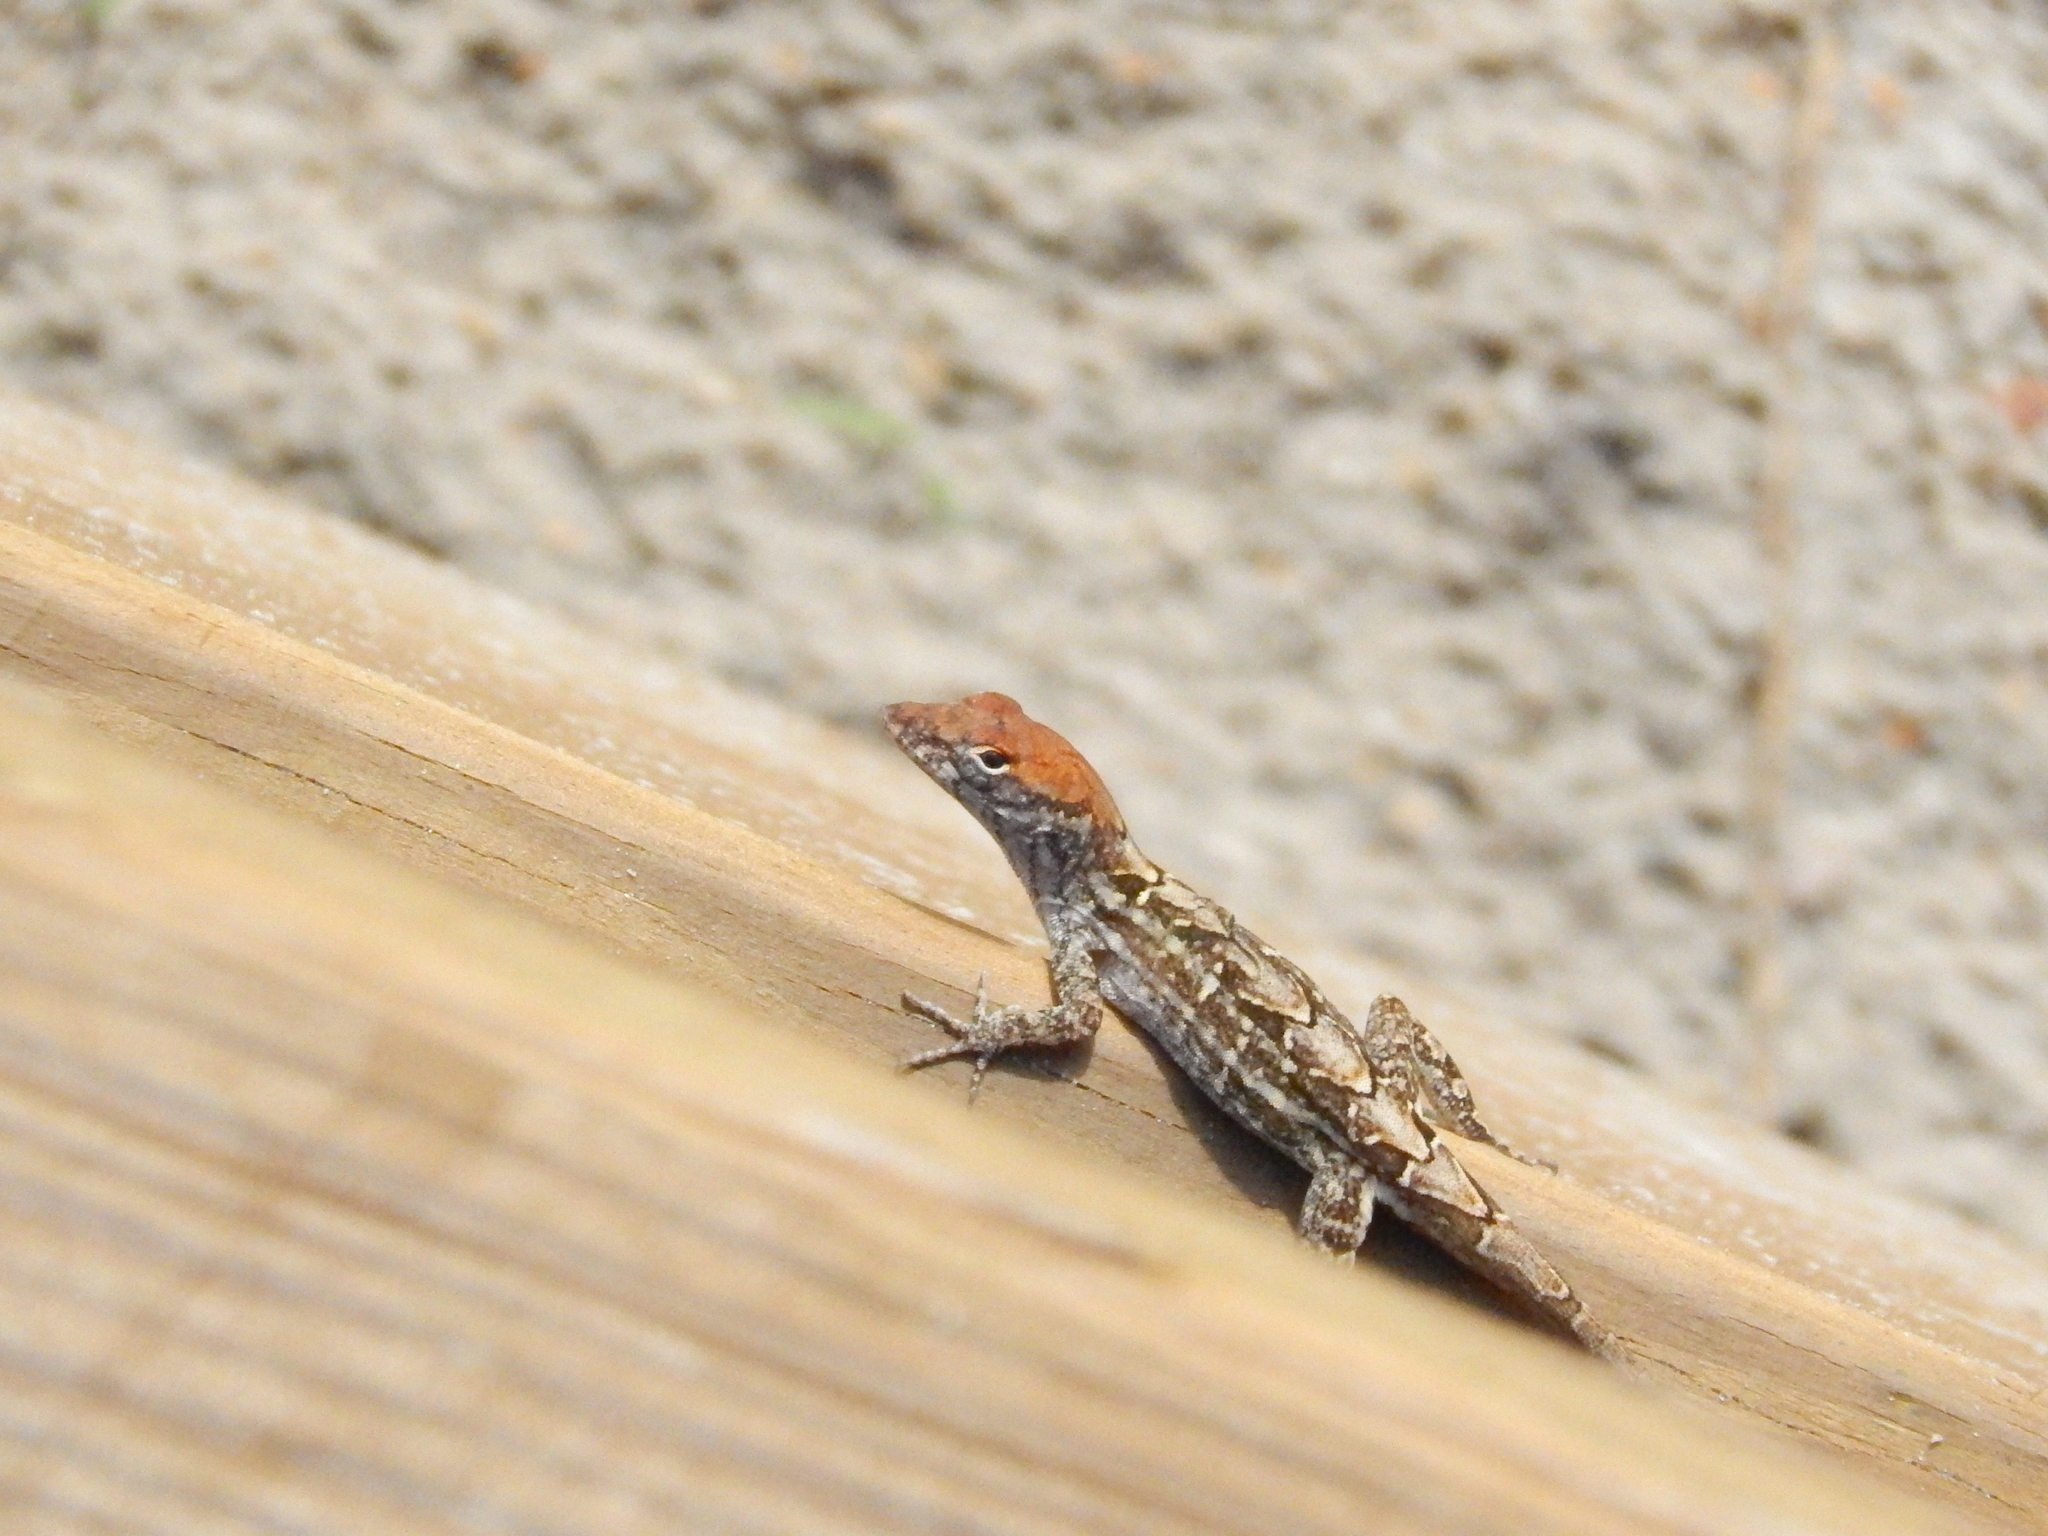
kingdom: Animalia
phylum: Chordata
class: Squamata
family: Dactyloidae
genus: Anolis
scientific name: Anolis sagrei
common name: Brown anole
